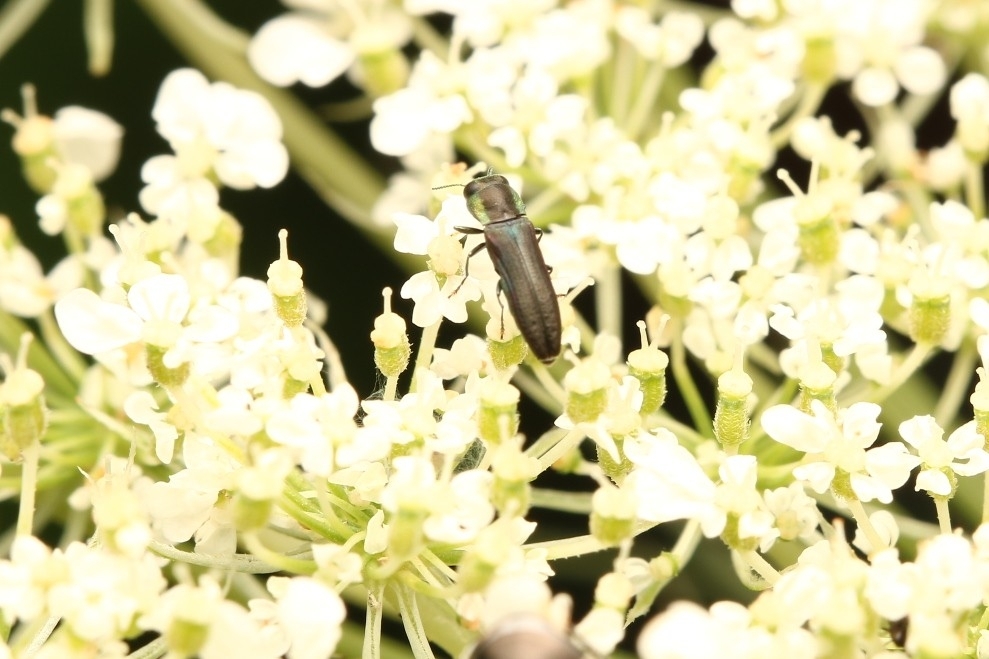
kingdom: Animalia
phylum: Arthropoda
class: Insecta
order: Coleoptera
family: Buprestidae
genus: Agrilaxia
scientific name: Agrilaxia flavimana
